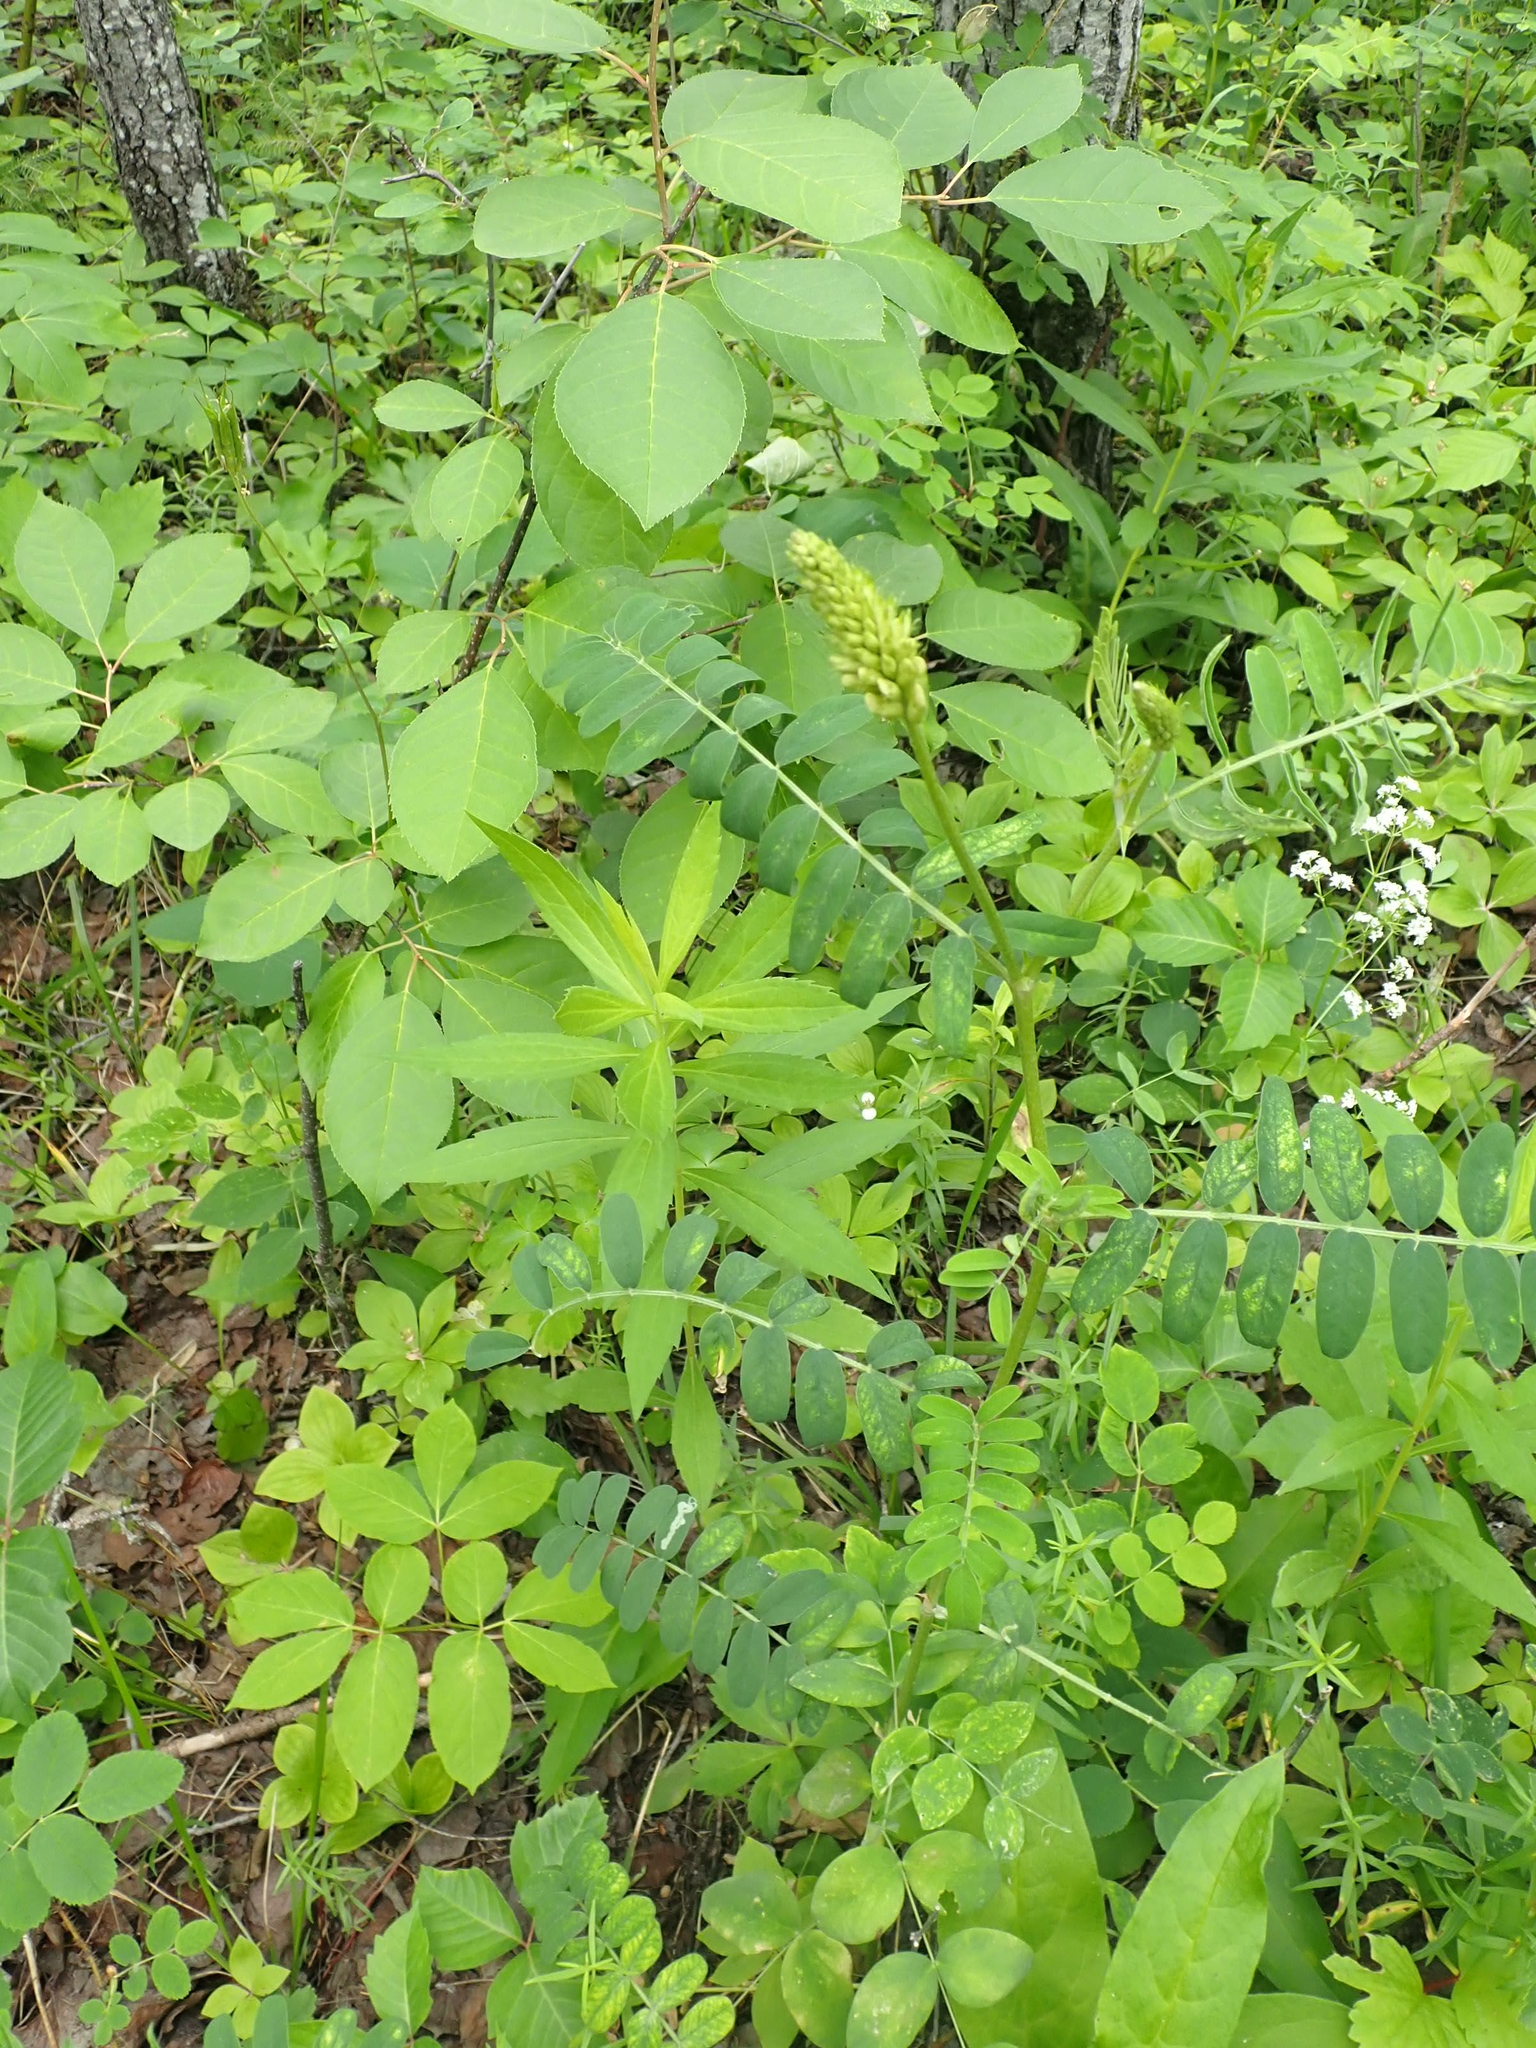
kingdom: Plantae
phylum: Tracheophyta
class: Magnoliopsida
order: Fabales
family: Fabaceae
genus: Astragalus
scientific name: Astragalus canadensis
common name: Canada milk-vetch
